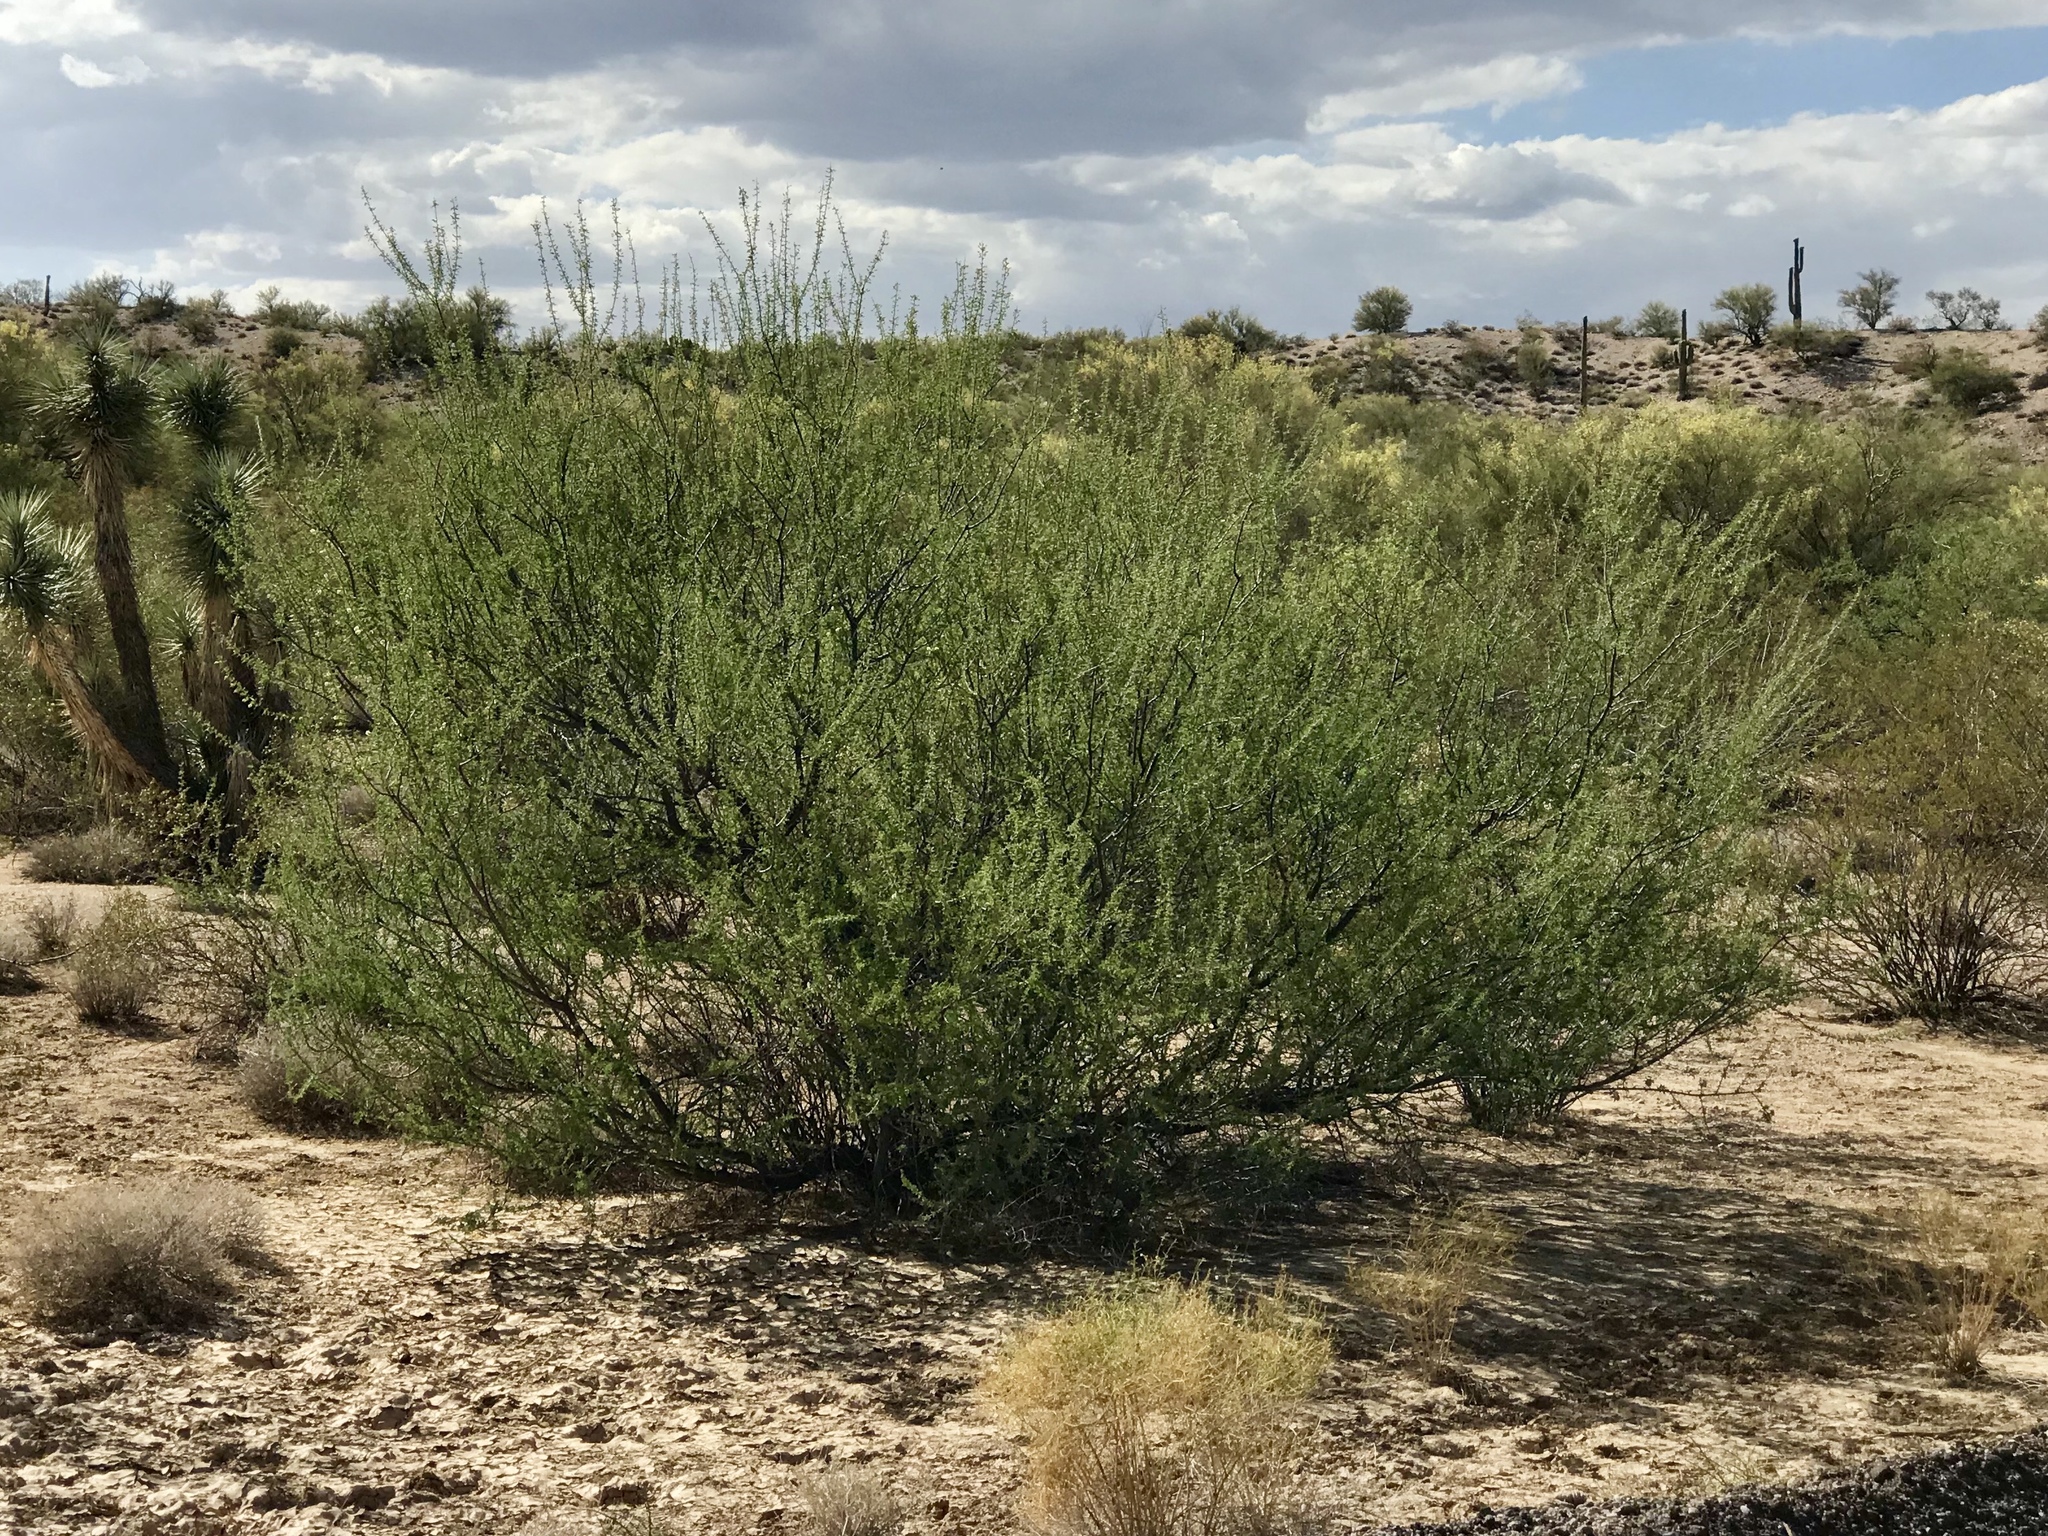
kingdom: Plantae
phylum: Tracheophyta
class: Magnoliopsida
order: Fabales
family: Fabaceae
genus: Senegalia
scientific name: Senegalia greggii
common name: Texas-mimosa
